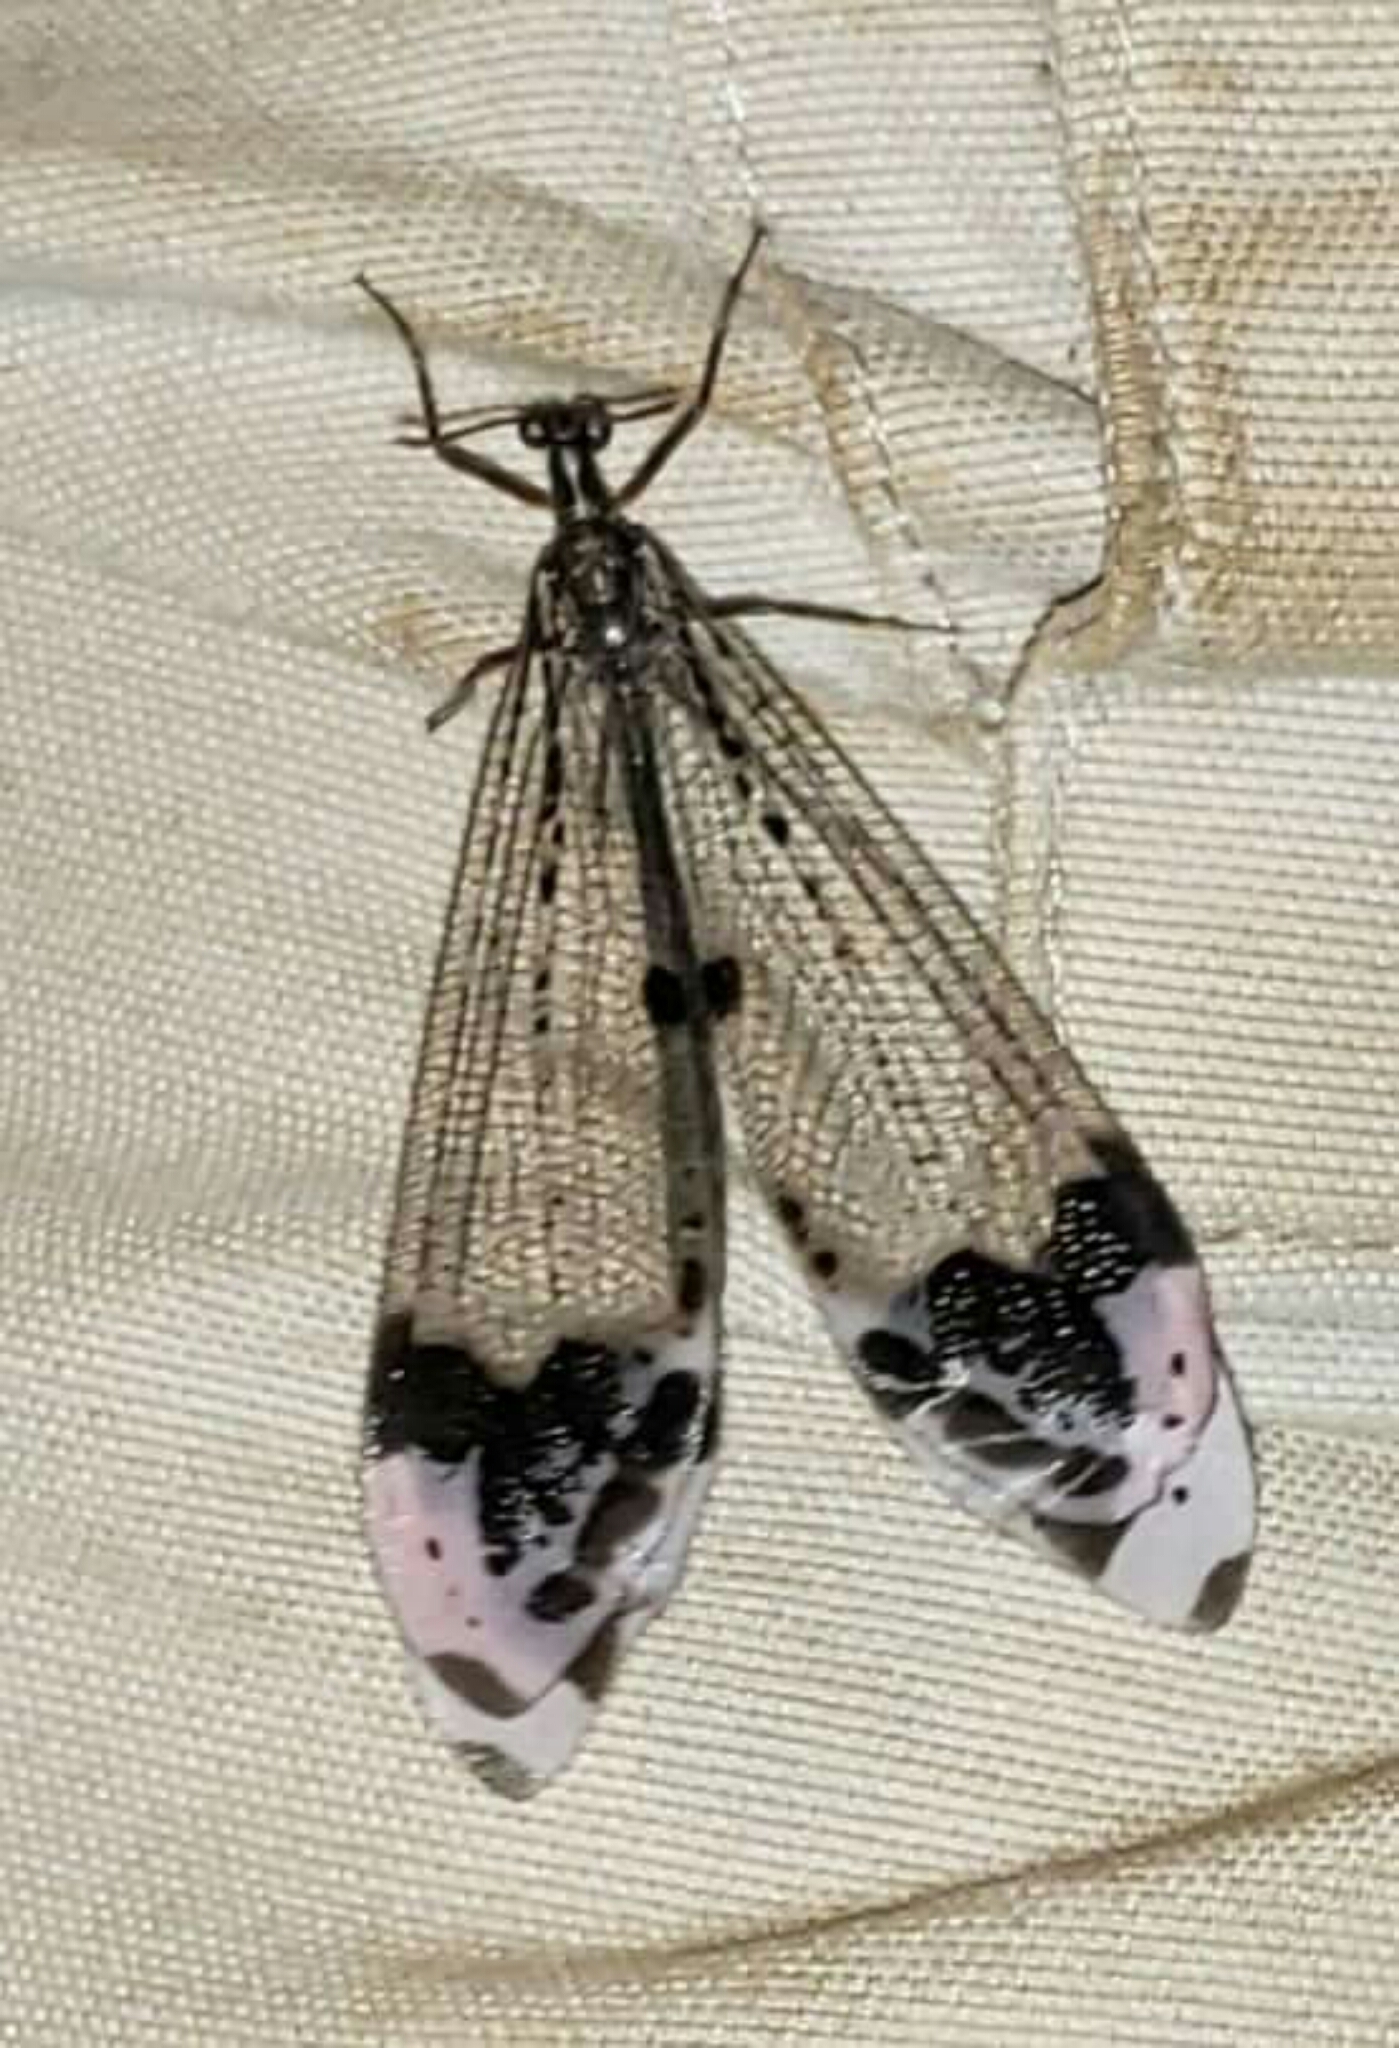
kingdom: Animalia
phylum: Arthropoda
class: Insecta
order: Neuroptera
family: Myrmeleontidae
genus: Glenurus
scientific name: Glenurus gratus
